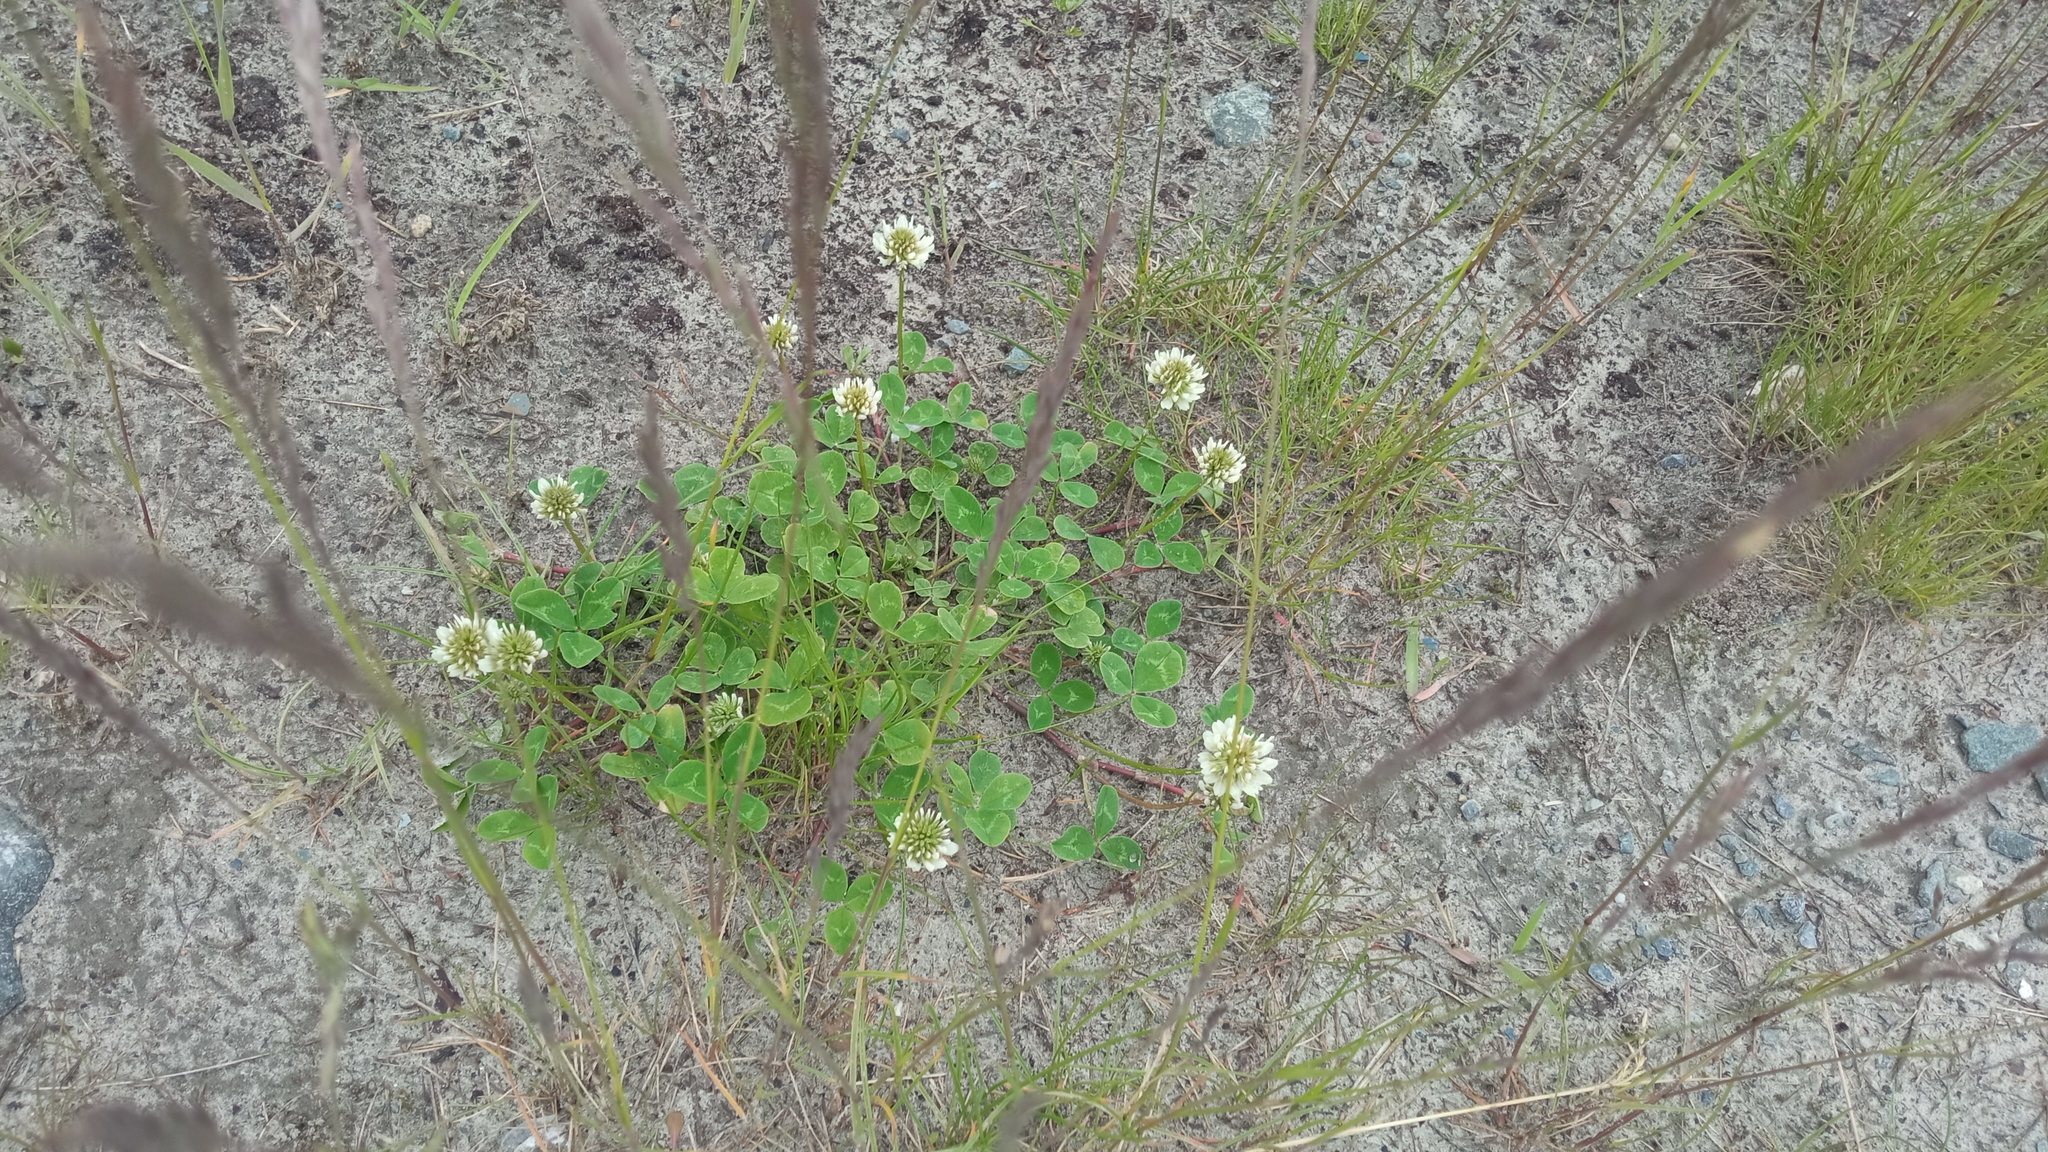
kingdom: Plantae
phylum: Tracheophyta
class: Magnoliopsida
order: Fabales
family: Fabaceae
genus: Trifolium
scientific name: Trifolium repens
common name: White clover
